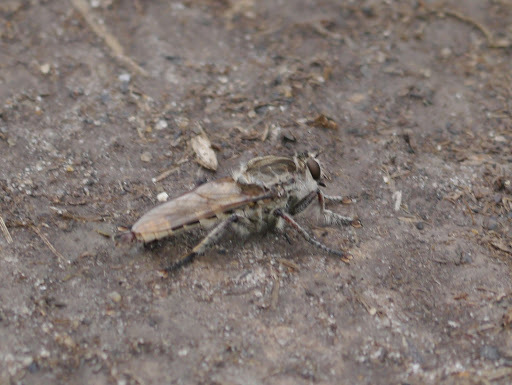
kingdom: Animalia
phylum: Arthropoda
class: Insecta
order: Diptera
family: Asilidae
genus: Triorla
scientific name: Triorla interrupta
